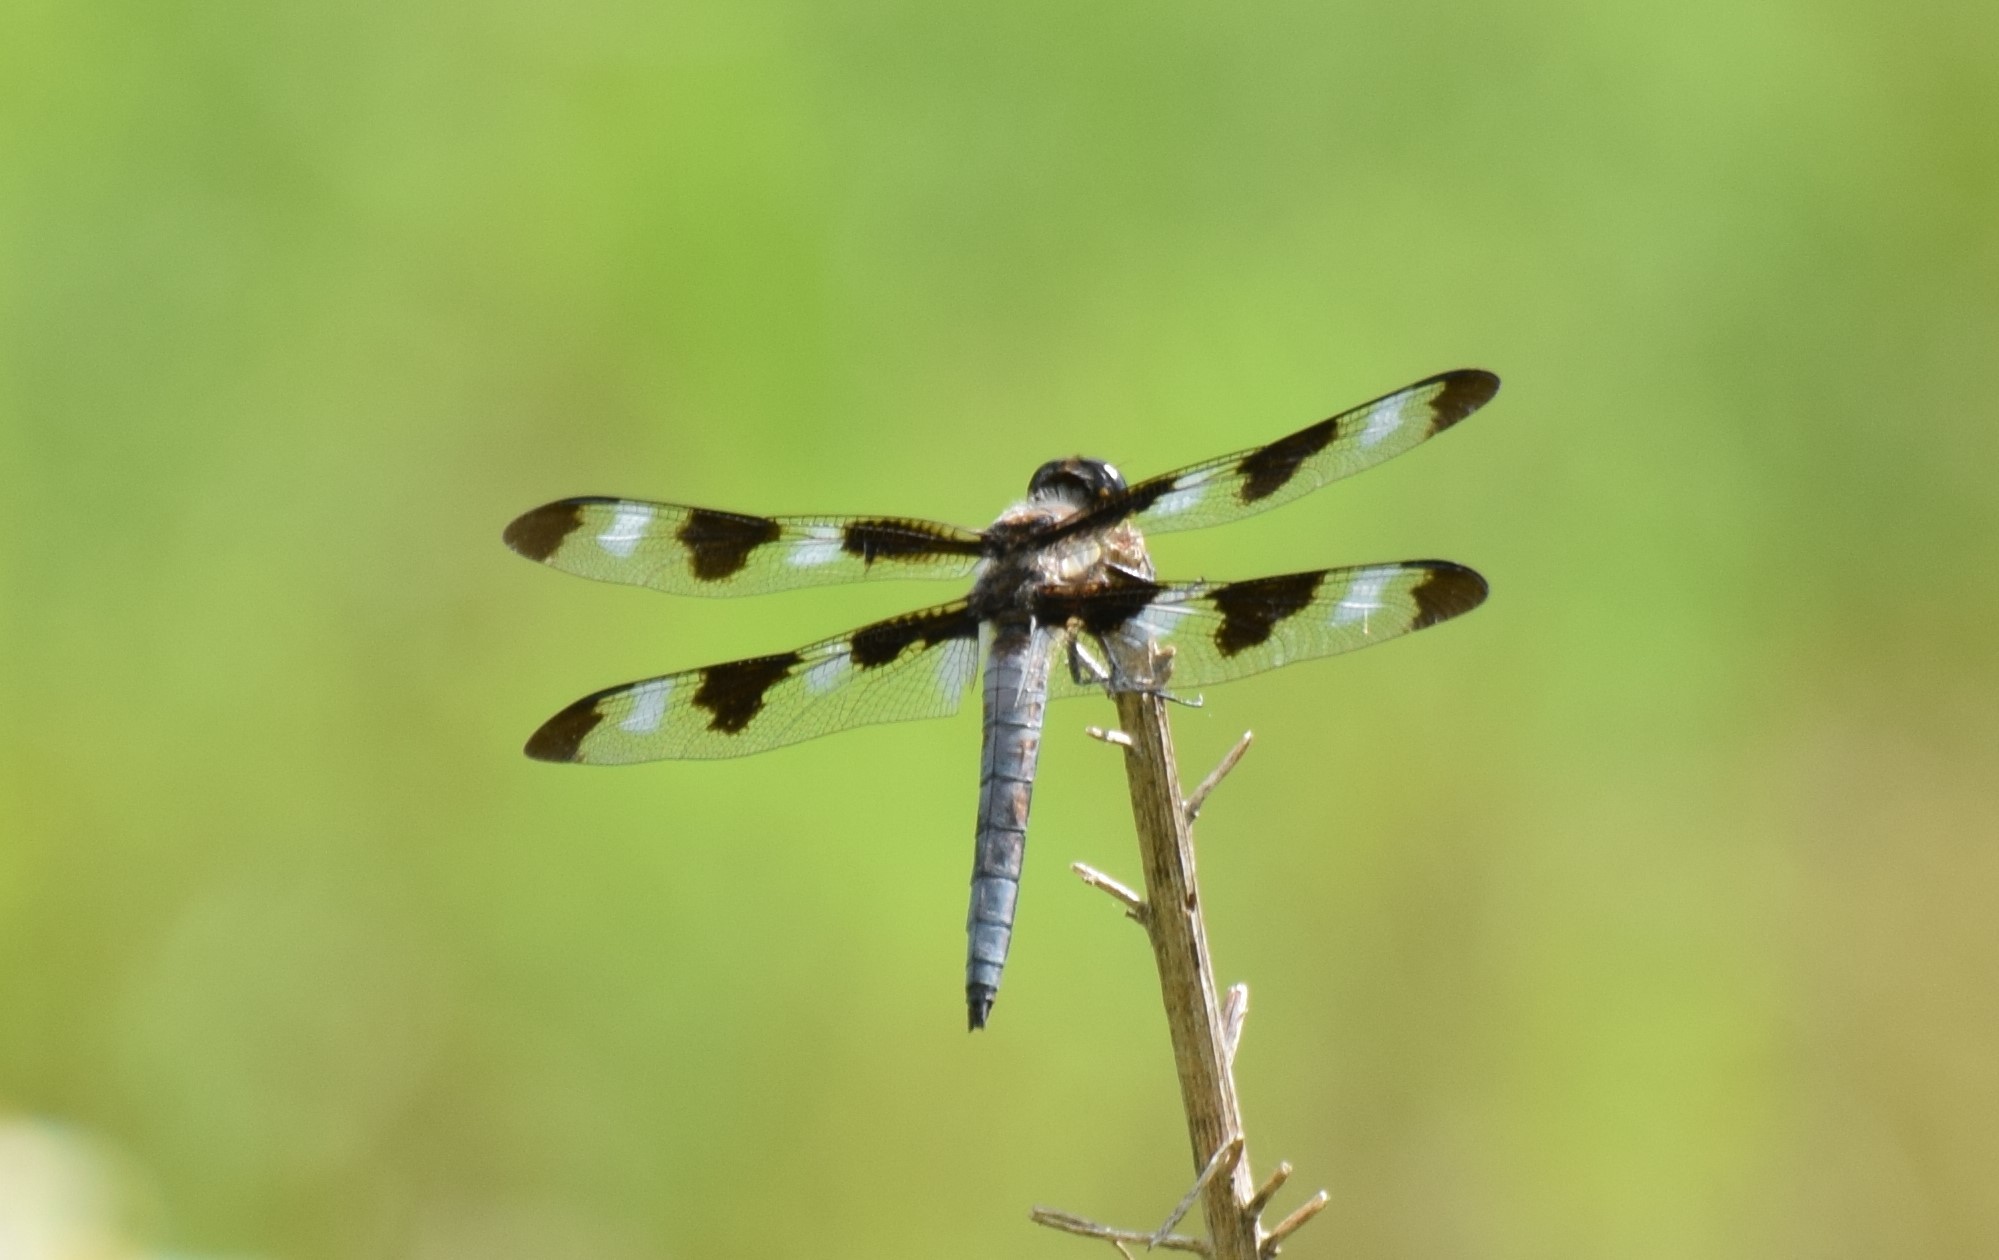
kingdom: Animalia
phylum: Arthropoda
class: Insecta
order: Odonata
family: Libellulidae
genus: Libellula
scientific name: Libellula pulchella
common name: Twelve-spotted skimmer
